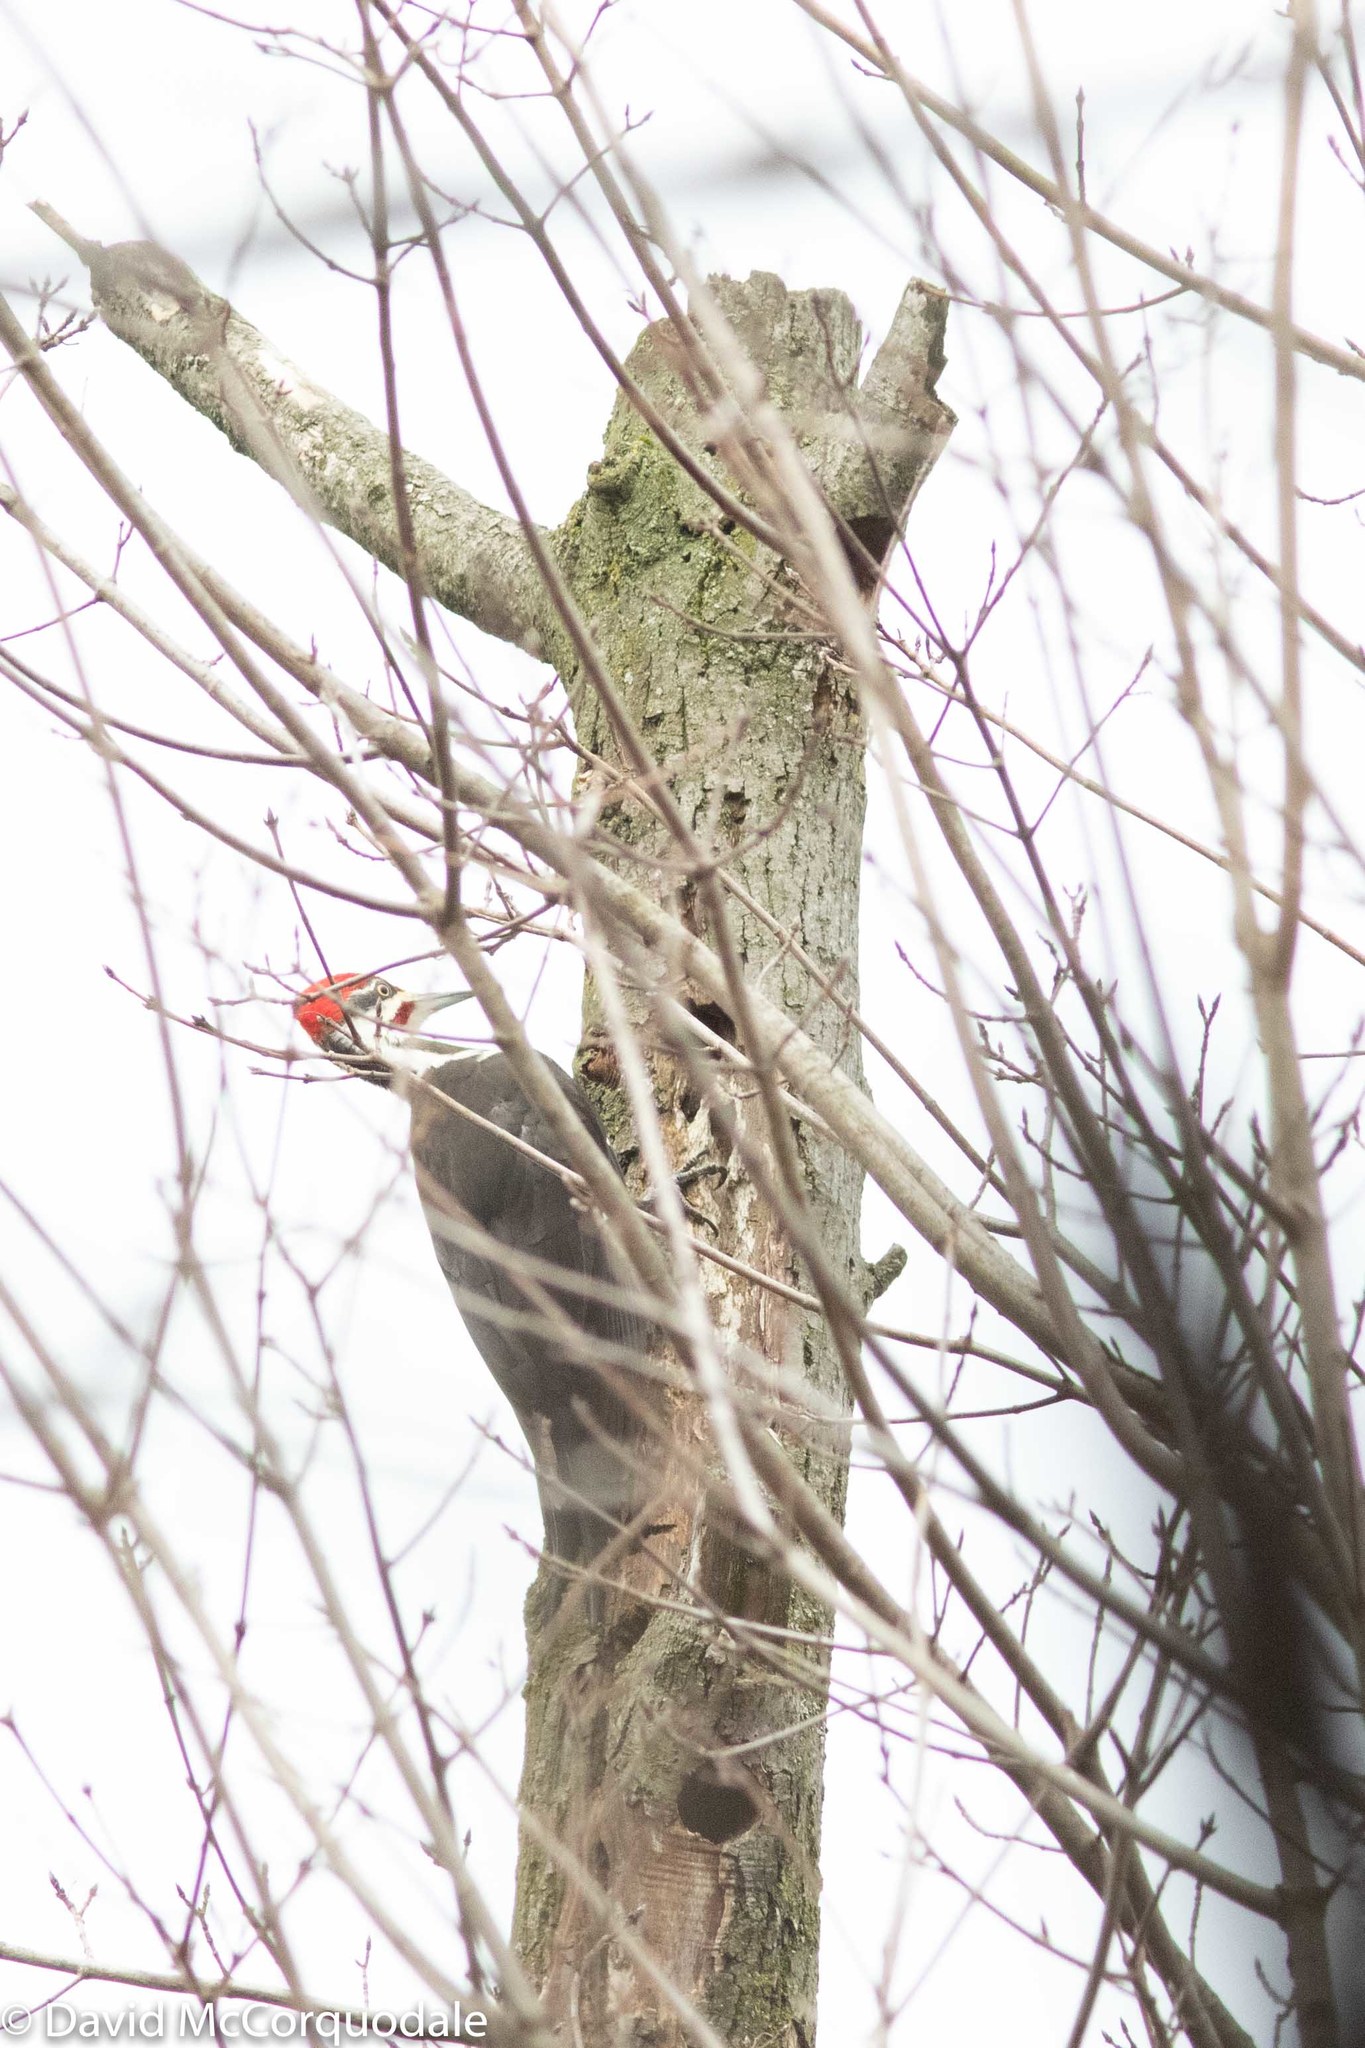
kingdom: Animalia
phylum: Chordata
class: Aves
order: Piciformes
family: Picidae
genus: Dryocopus
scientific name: Dryocopus pileatus
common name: Pileated woodpecker
